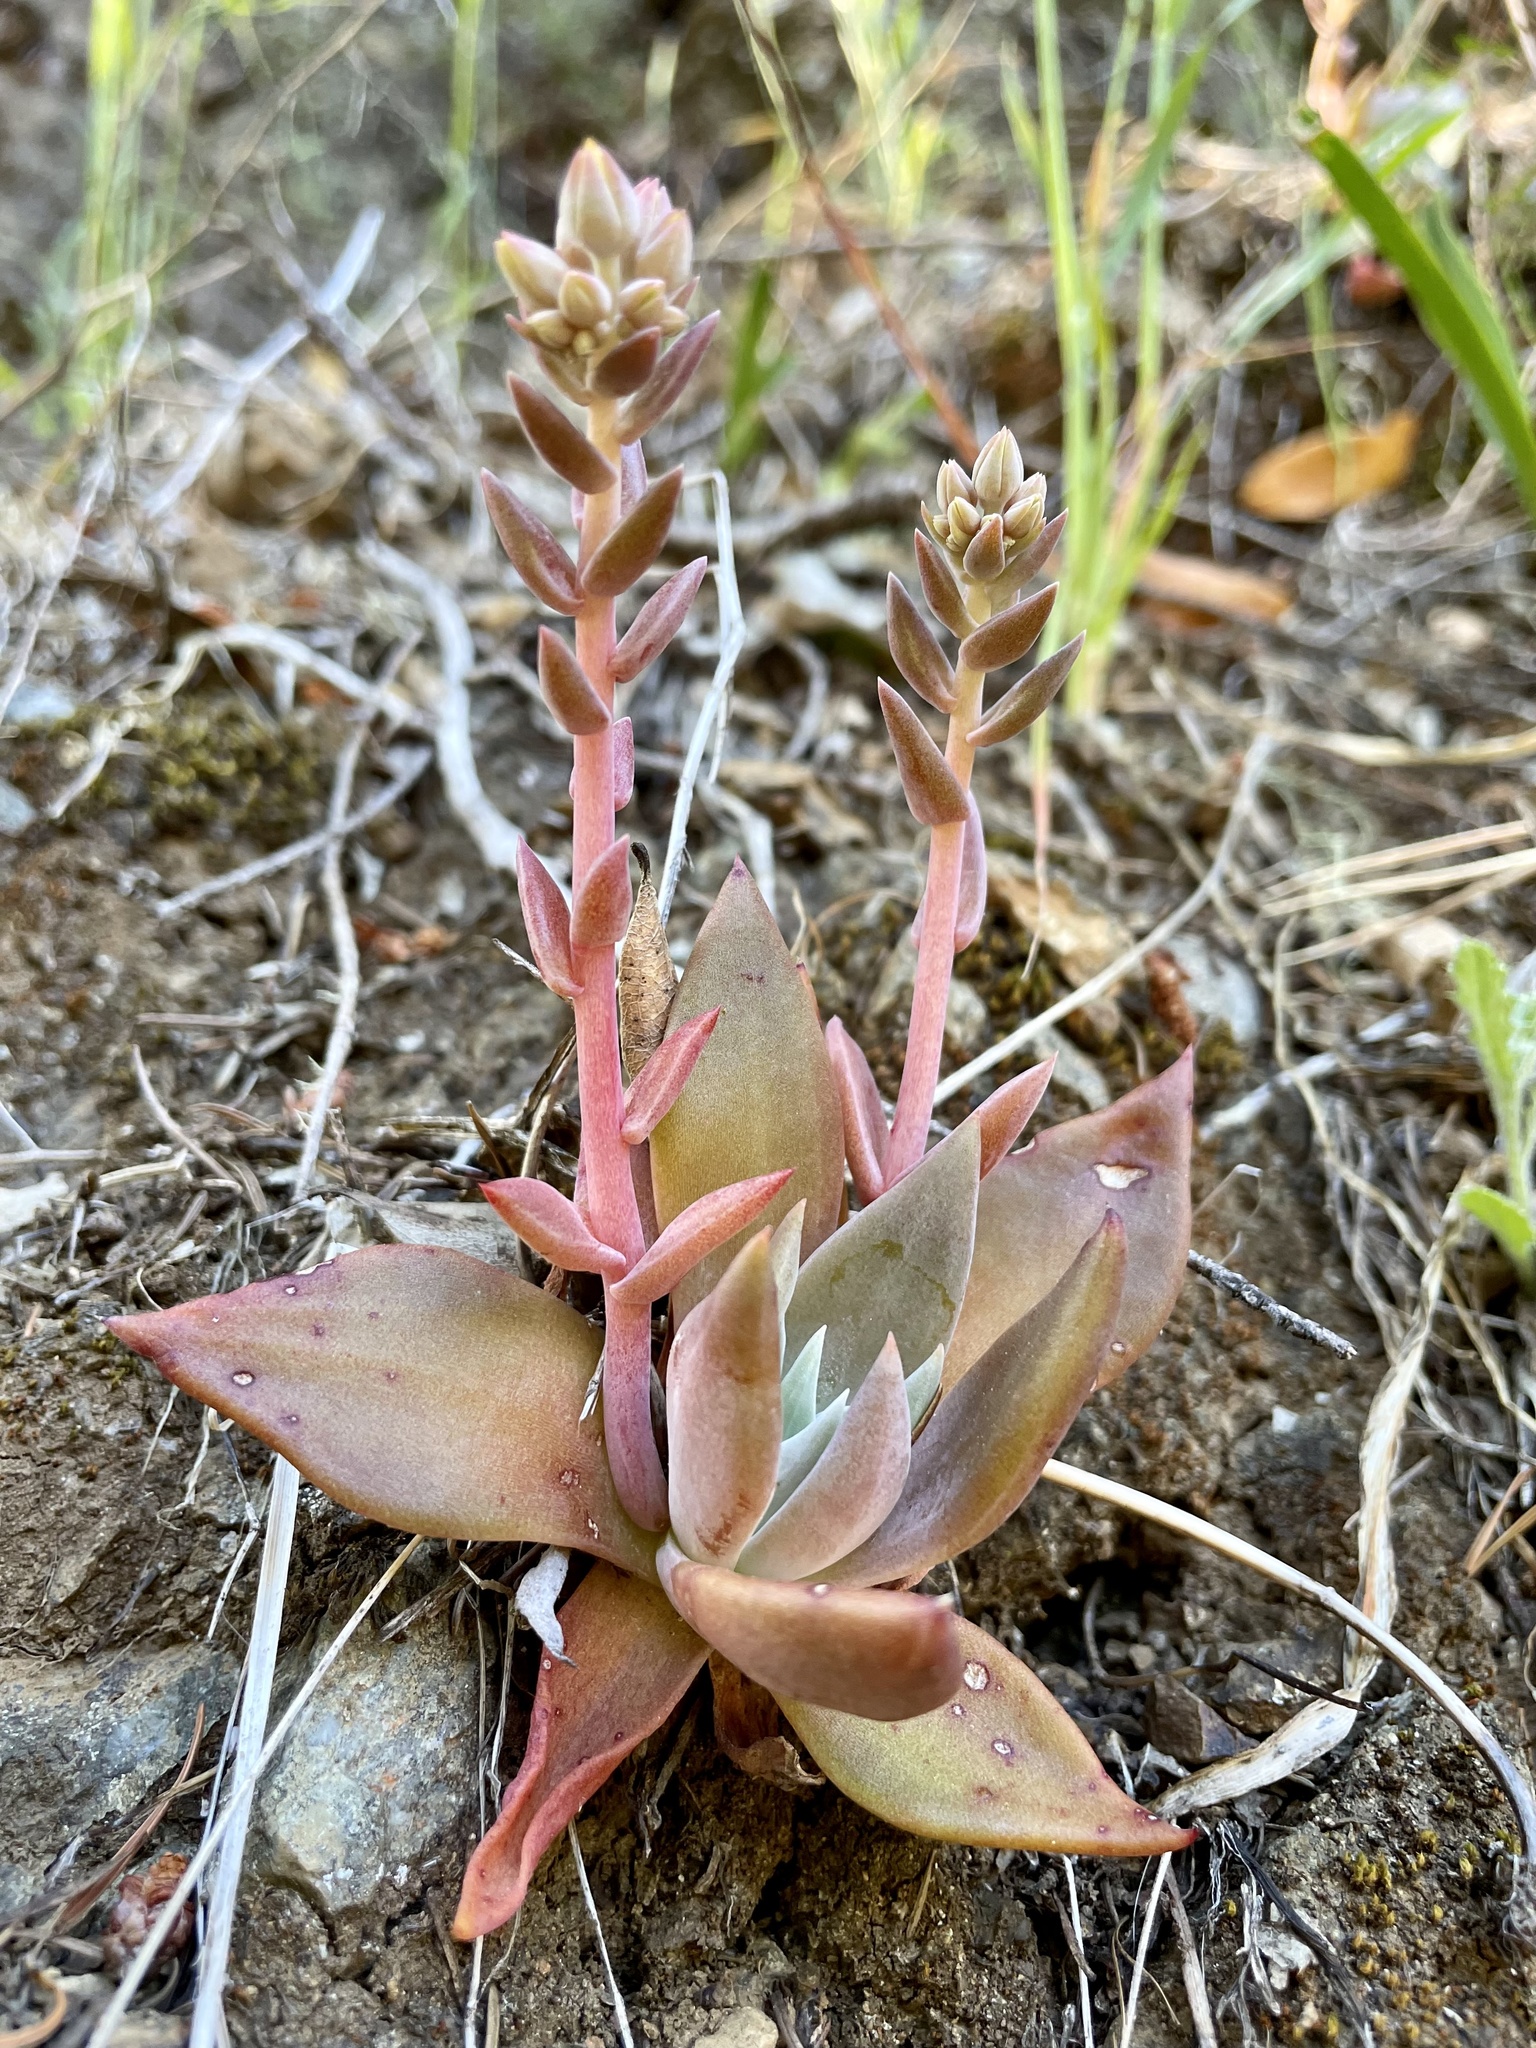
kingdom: Plantae
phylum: Tracheophyta
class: Magnoliopsida
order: Saxifragales
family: Crassulaceae
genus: Dudleya
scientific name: Dudleya cymosa
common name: Canyon dudleya
